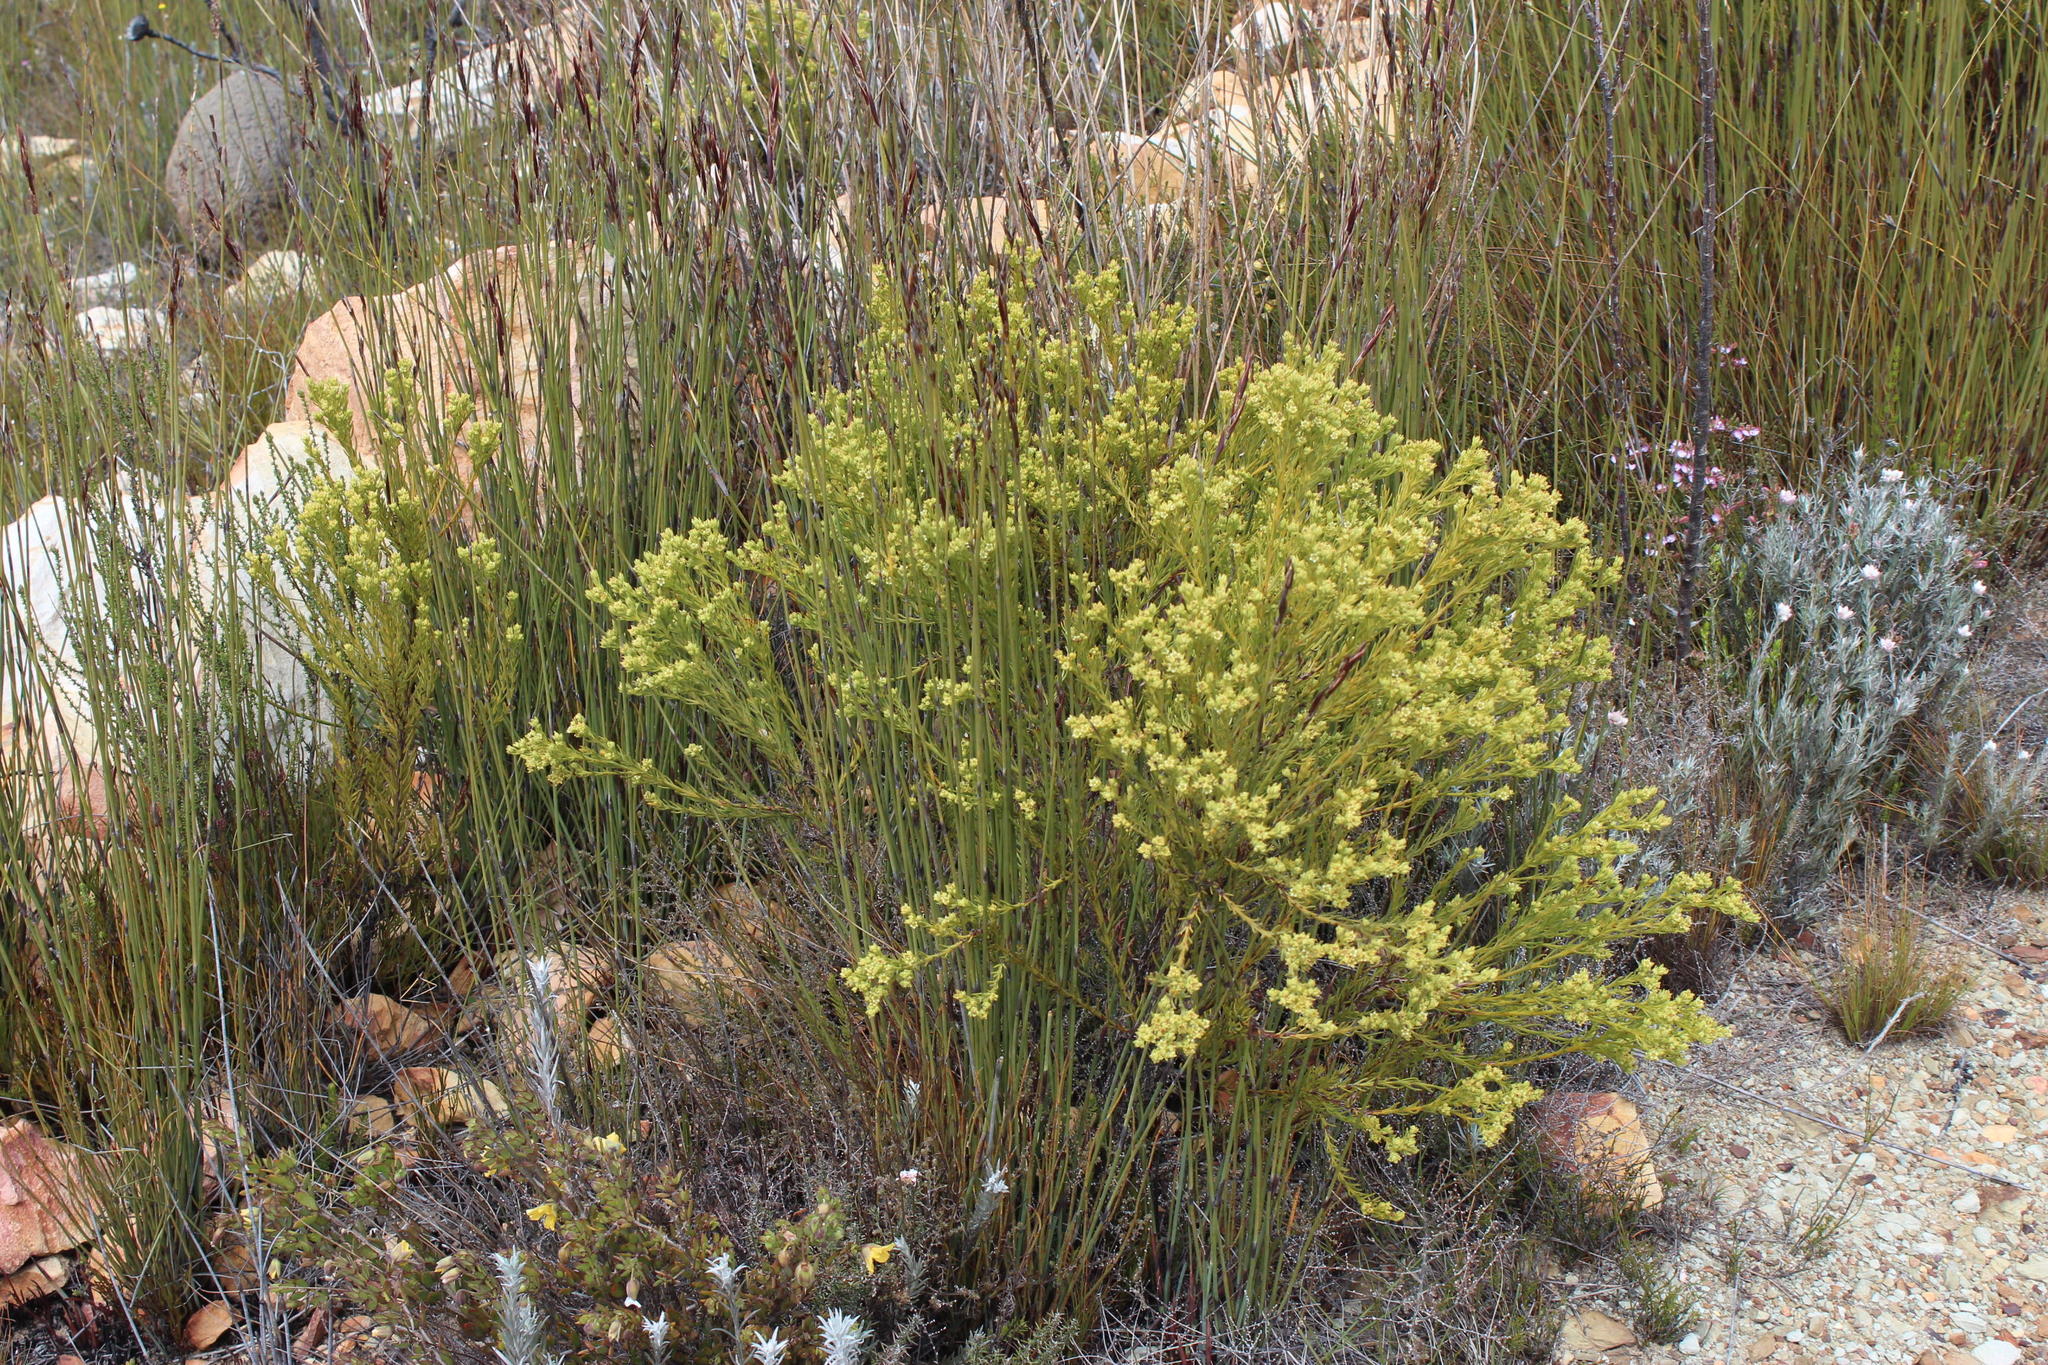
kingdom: Plantae
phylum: Tracheophyta
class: Magnoliopsida
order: Santalales
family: Thesiaceae
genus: Thesium
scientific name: Thesium foliosum
